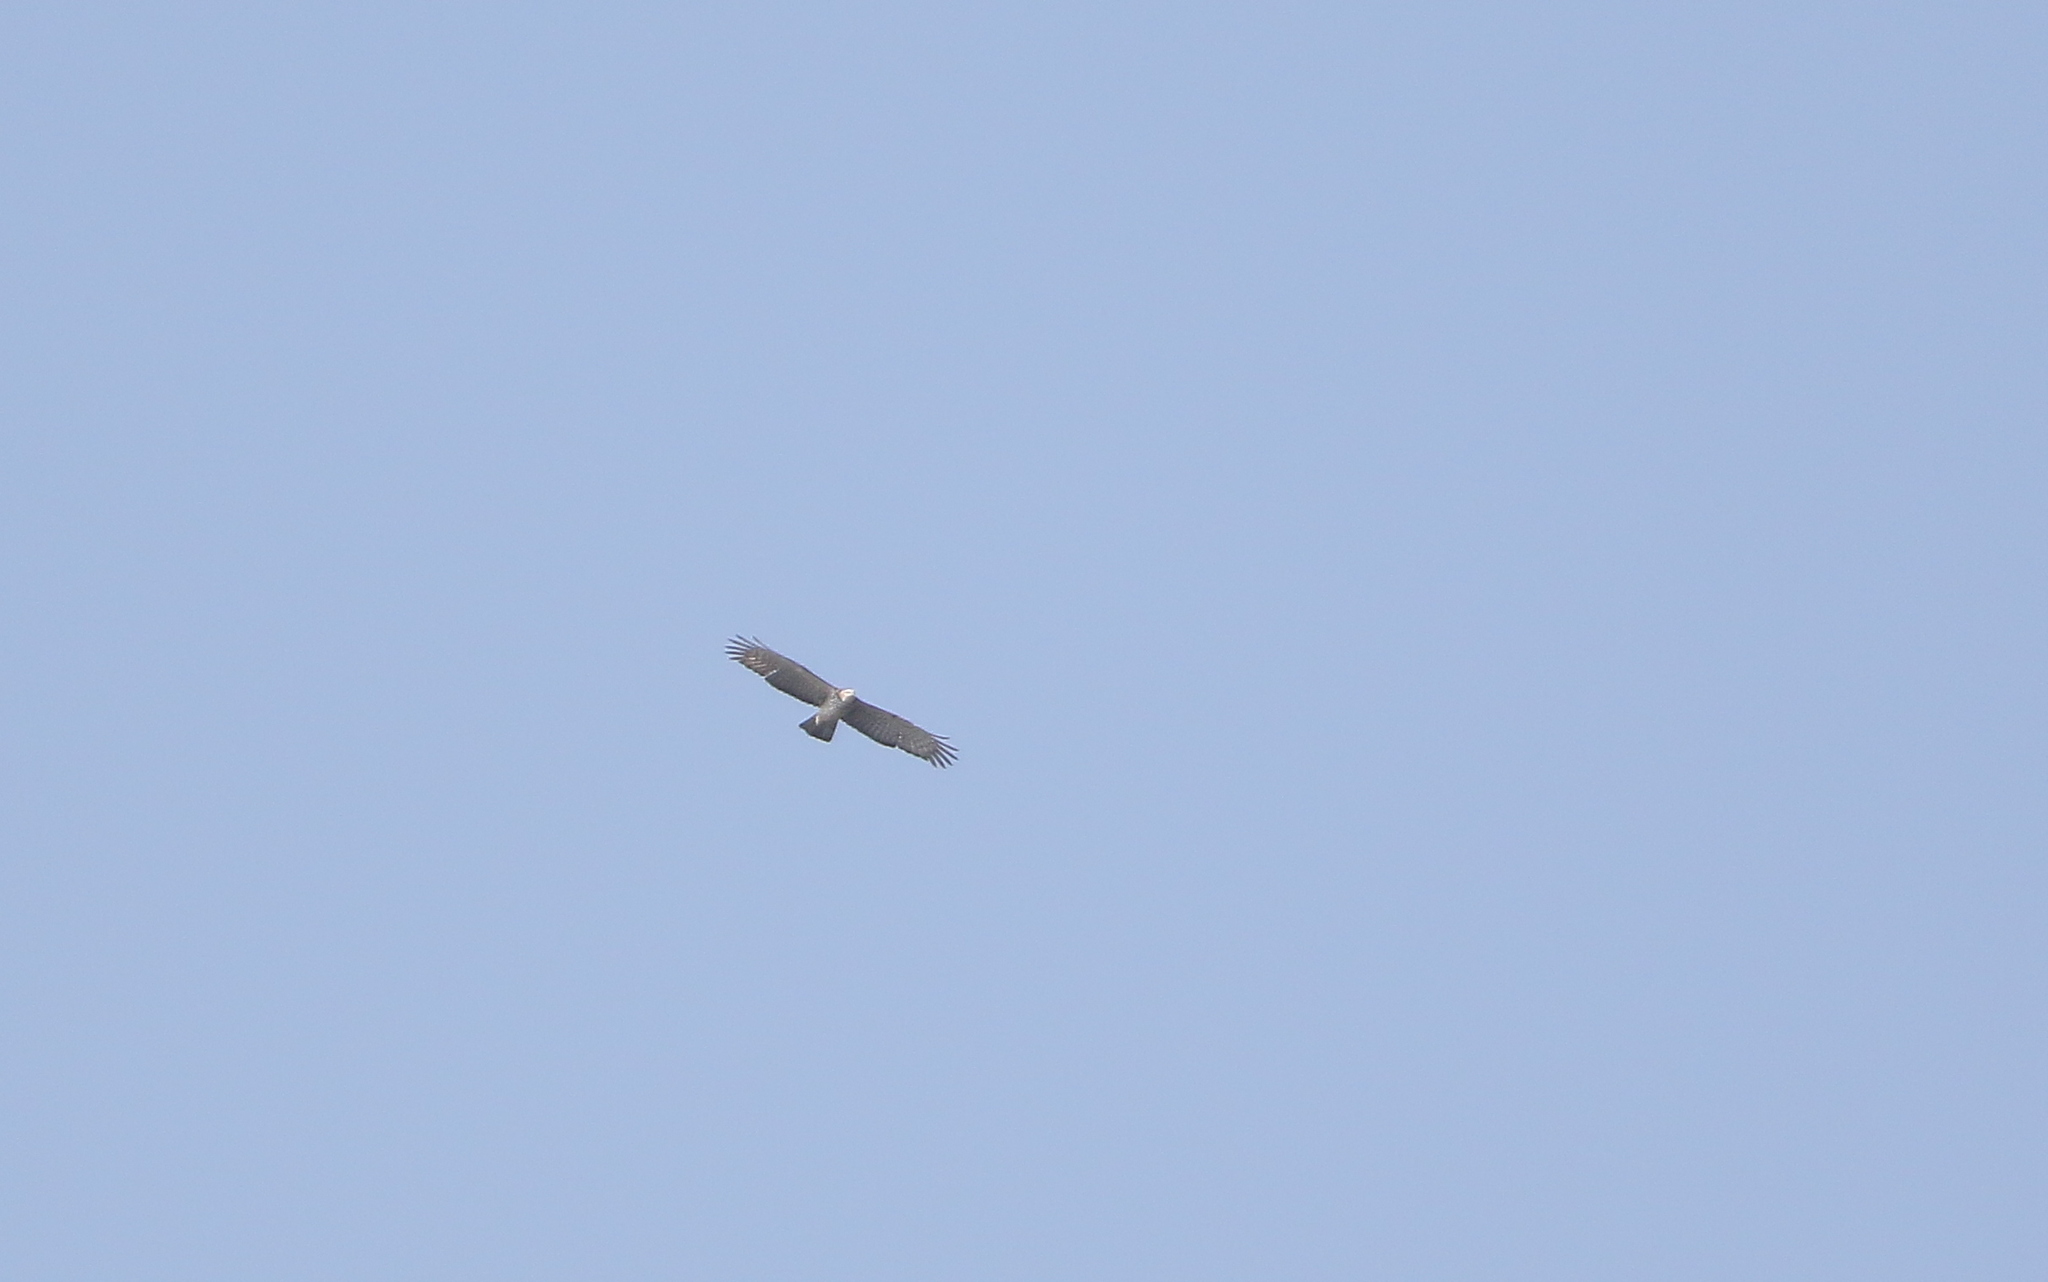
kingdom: Animalia
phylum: Chordata
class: Aves
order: Accipitriformes
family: Accipitridae
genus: Pernis
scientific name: Pernis ptilorhynchus
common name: Crested honey buzzard
